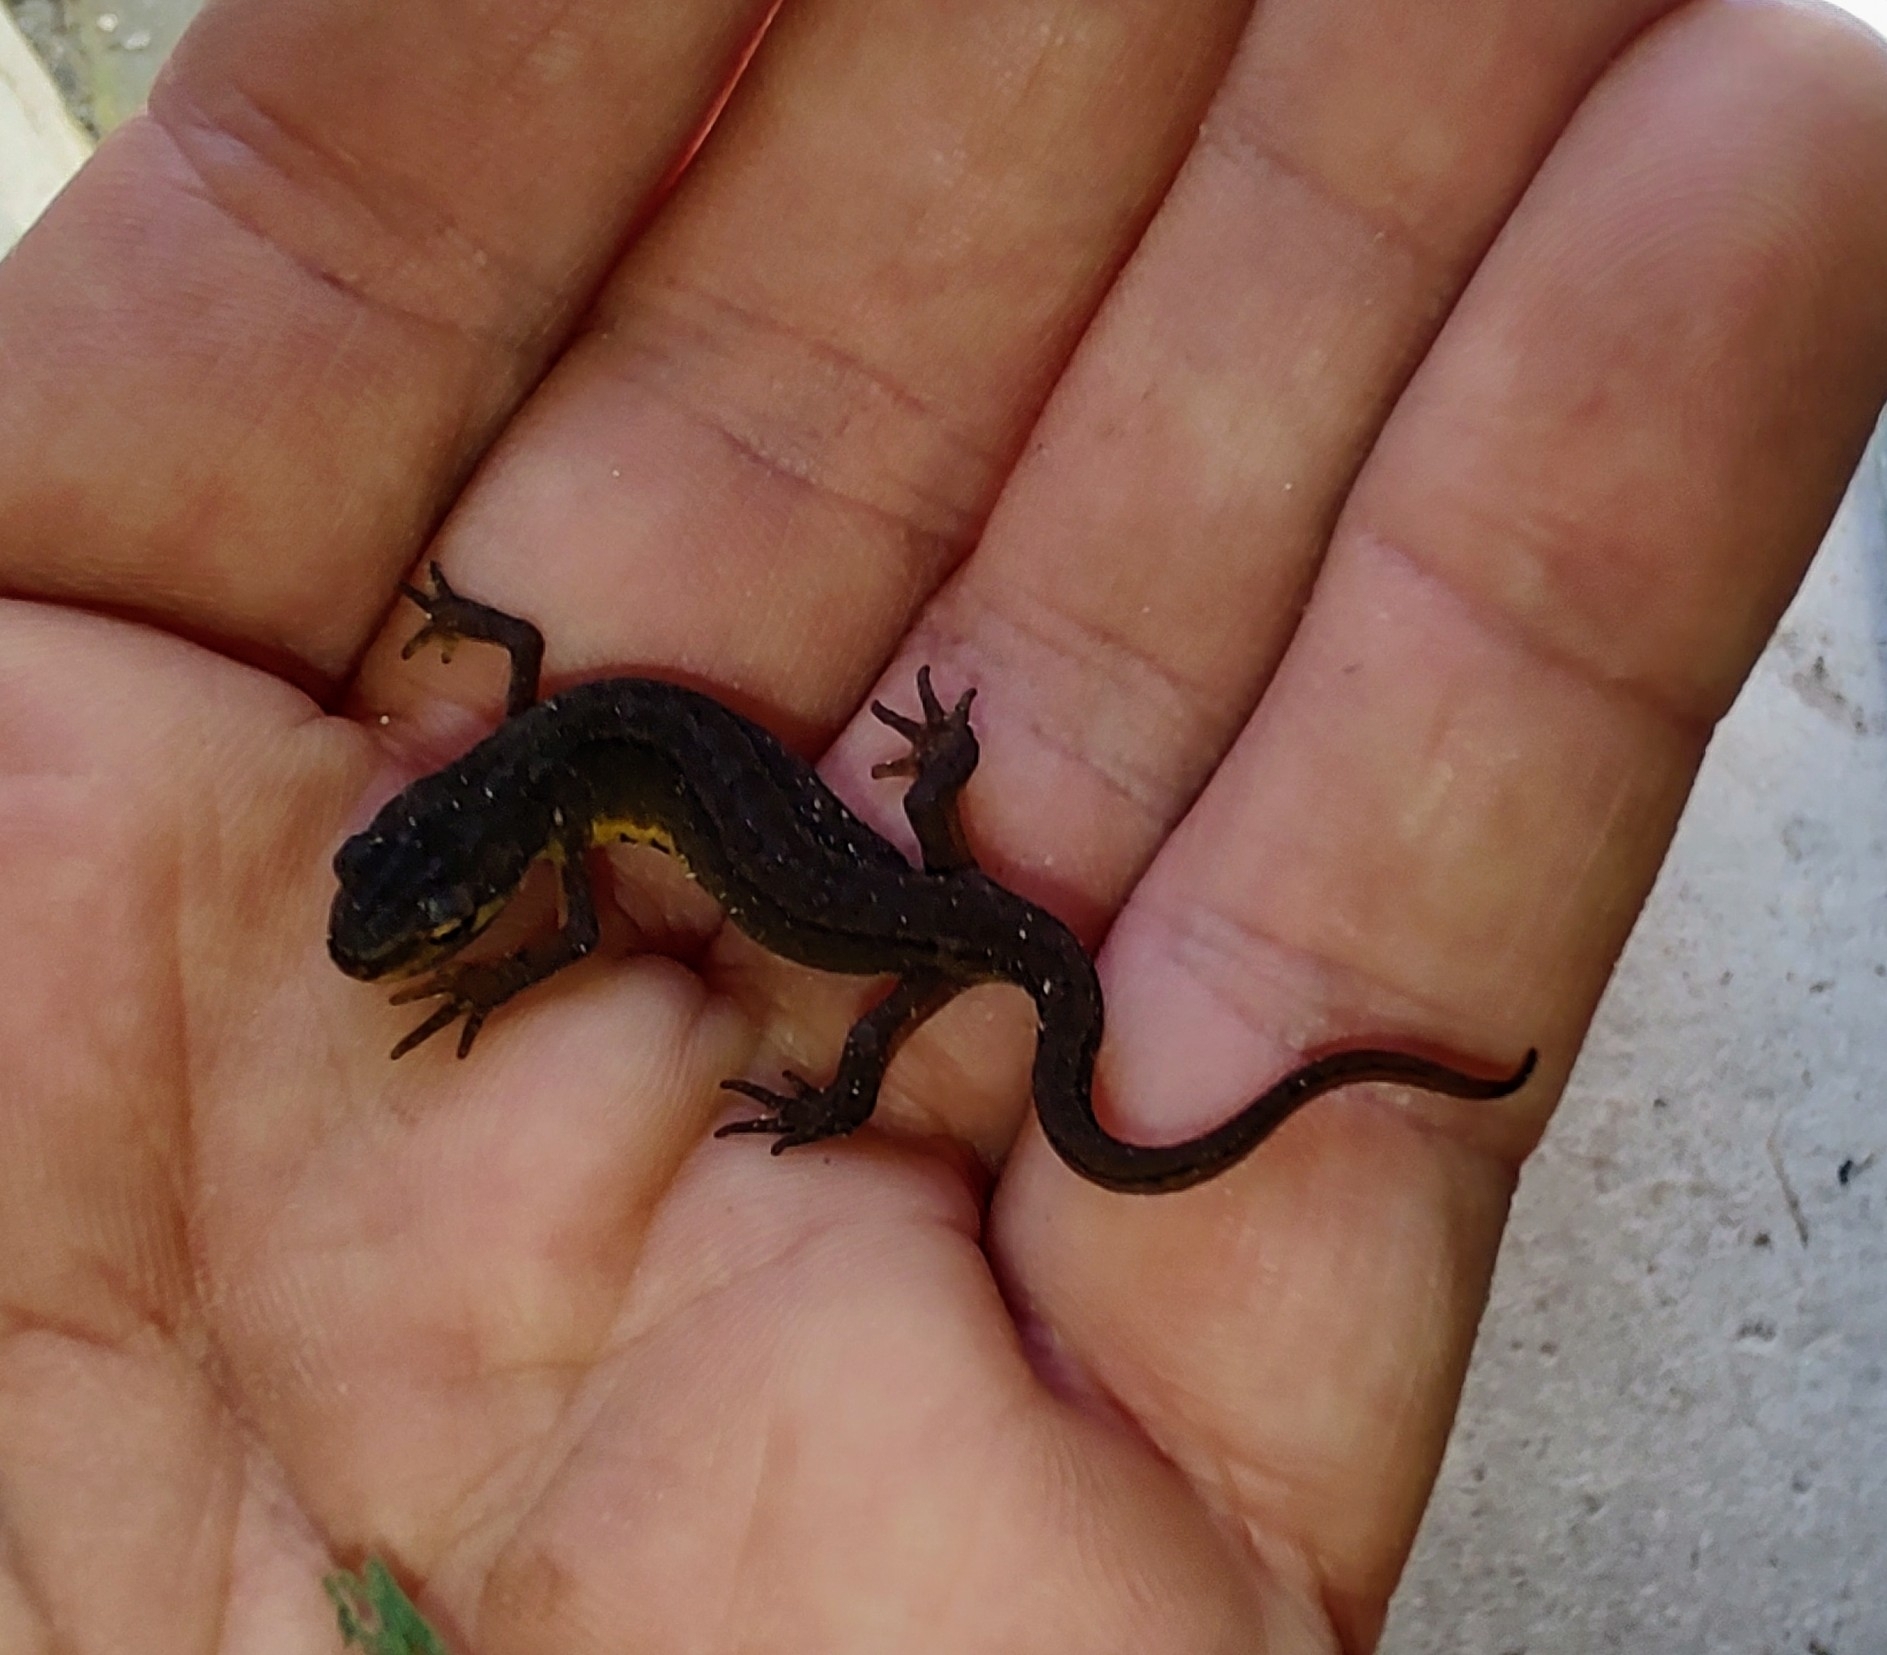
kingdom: Animalia
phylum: Chordata
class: Amphibia
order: Caudata
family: Salamandridae
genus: Lissotriton
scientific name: Lissotriton vulgaris
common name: Smooth newt
